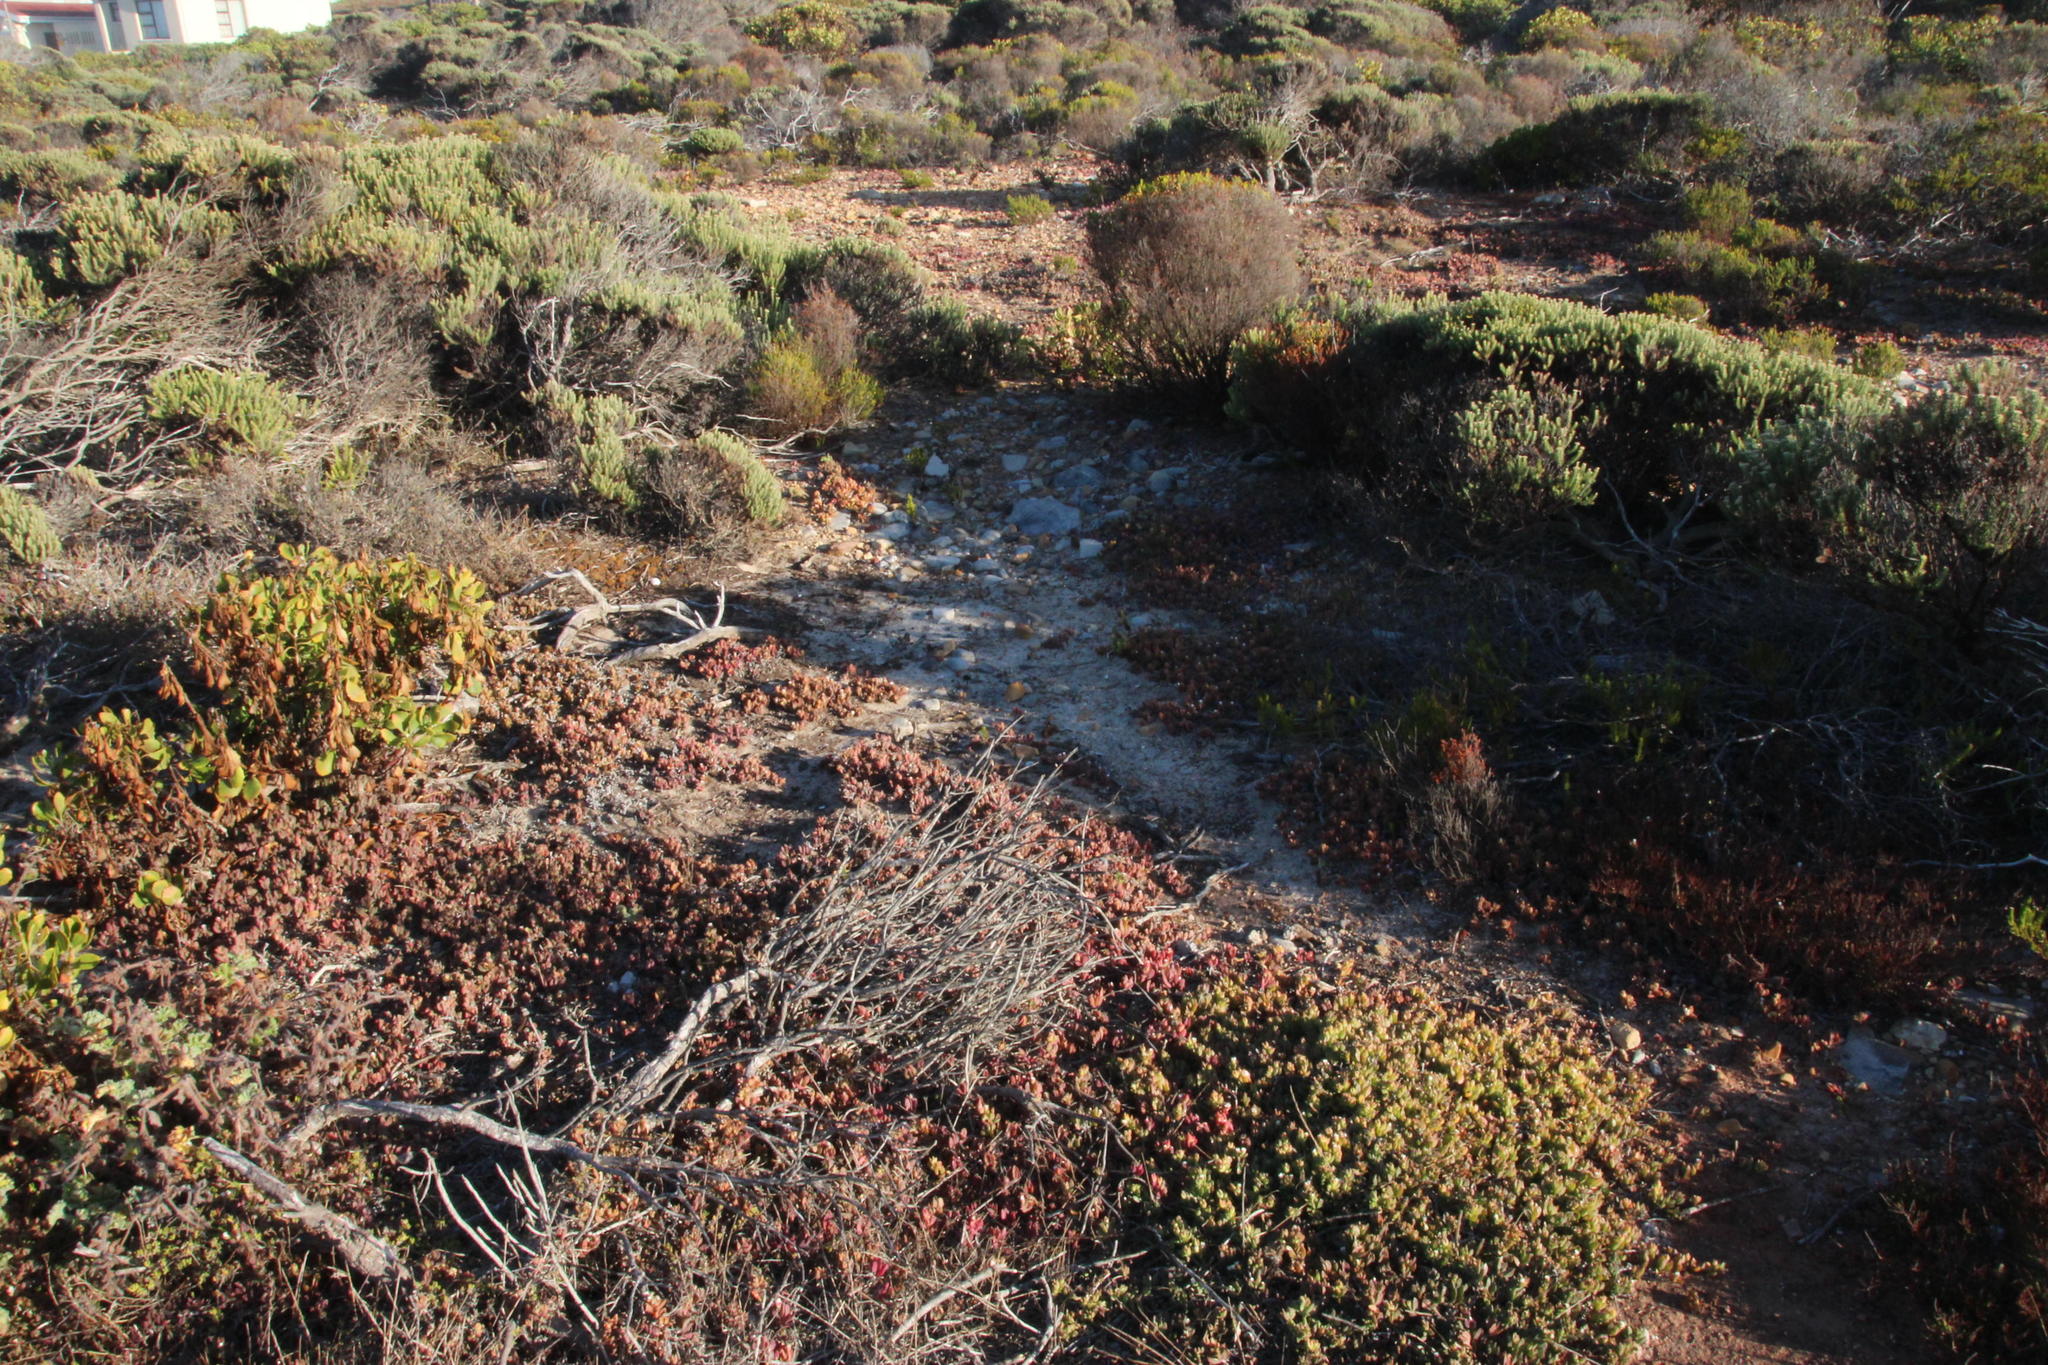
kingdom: Plantae
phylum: Tracheophyta
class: Magnoliopsida
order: Caryophyllales
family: Aizoaceae
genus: Delosperma
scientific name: Delosperma patersoniae
